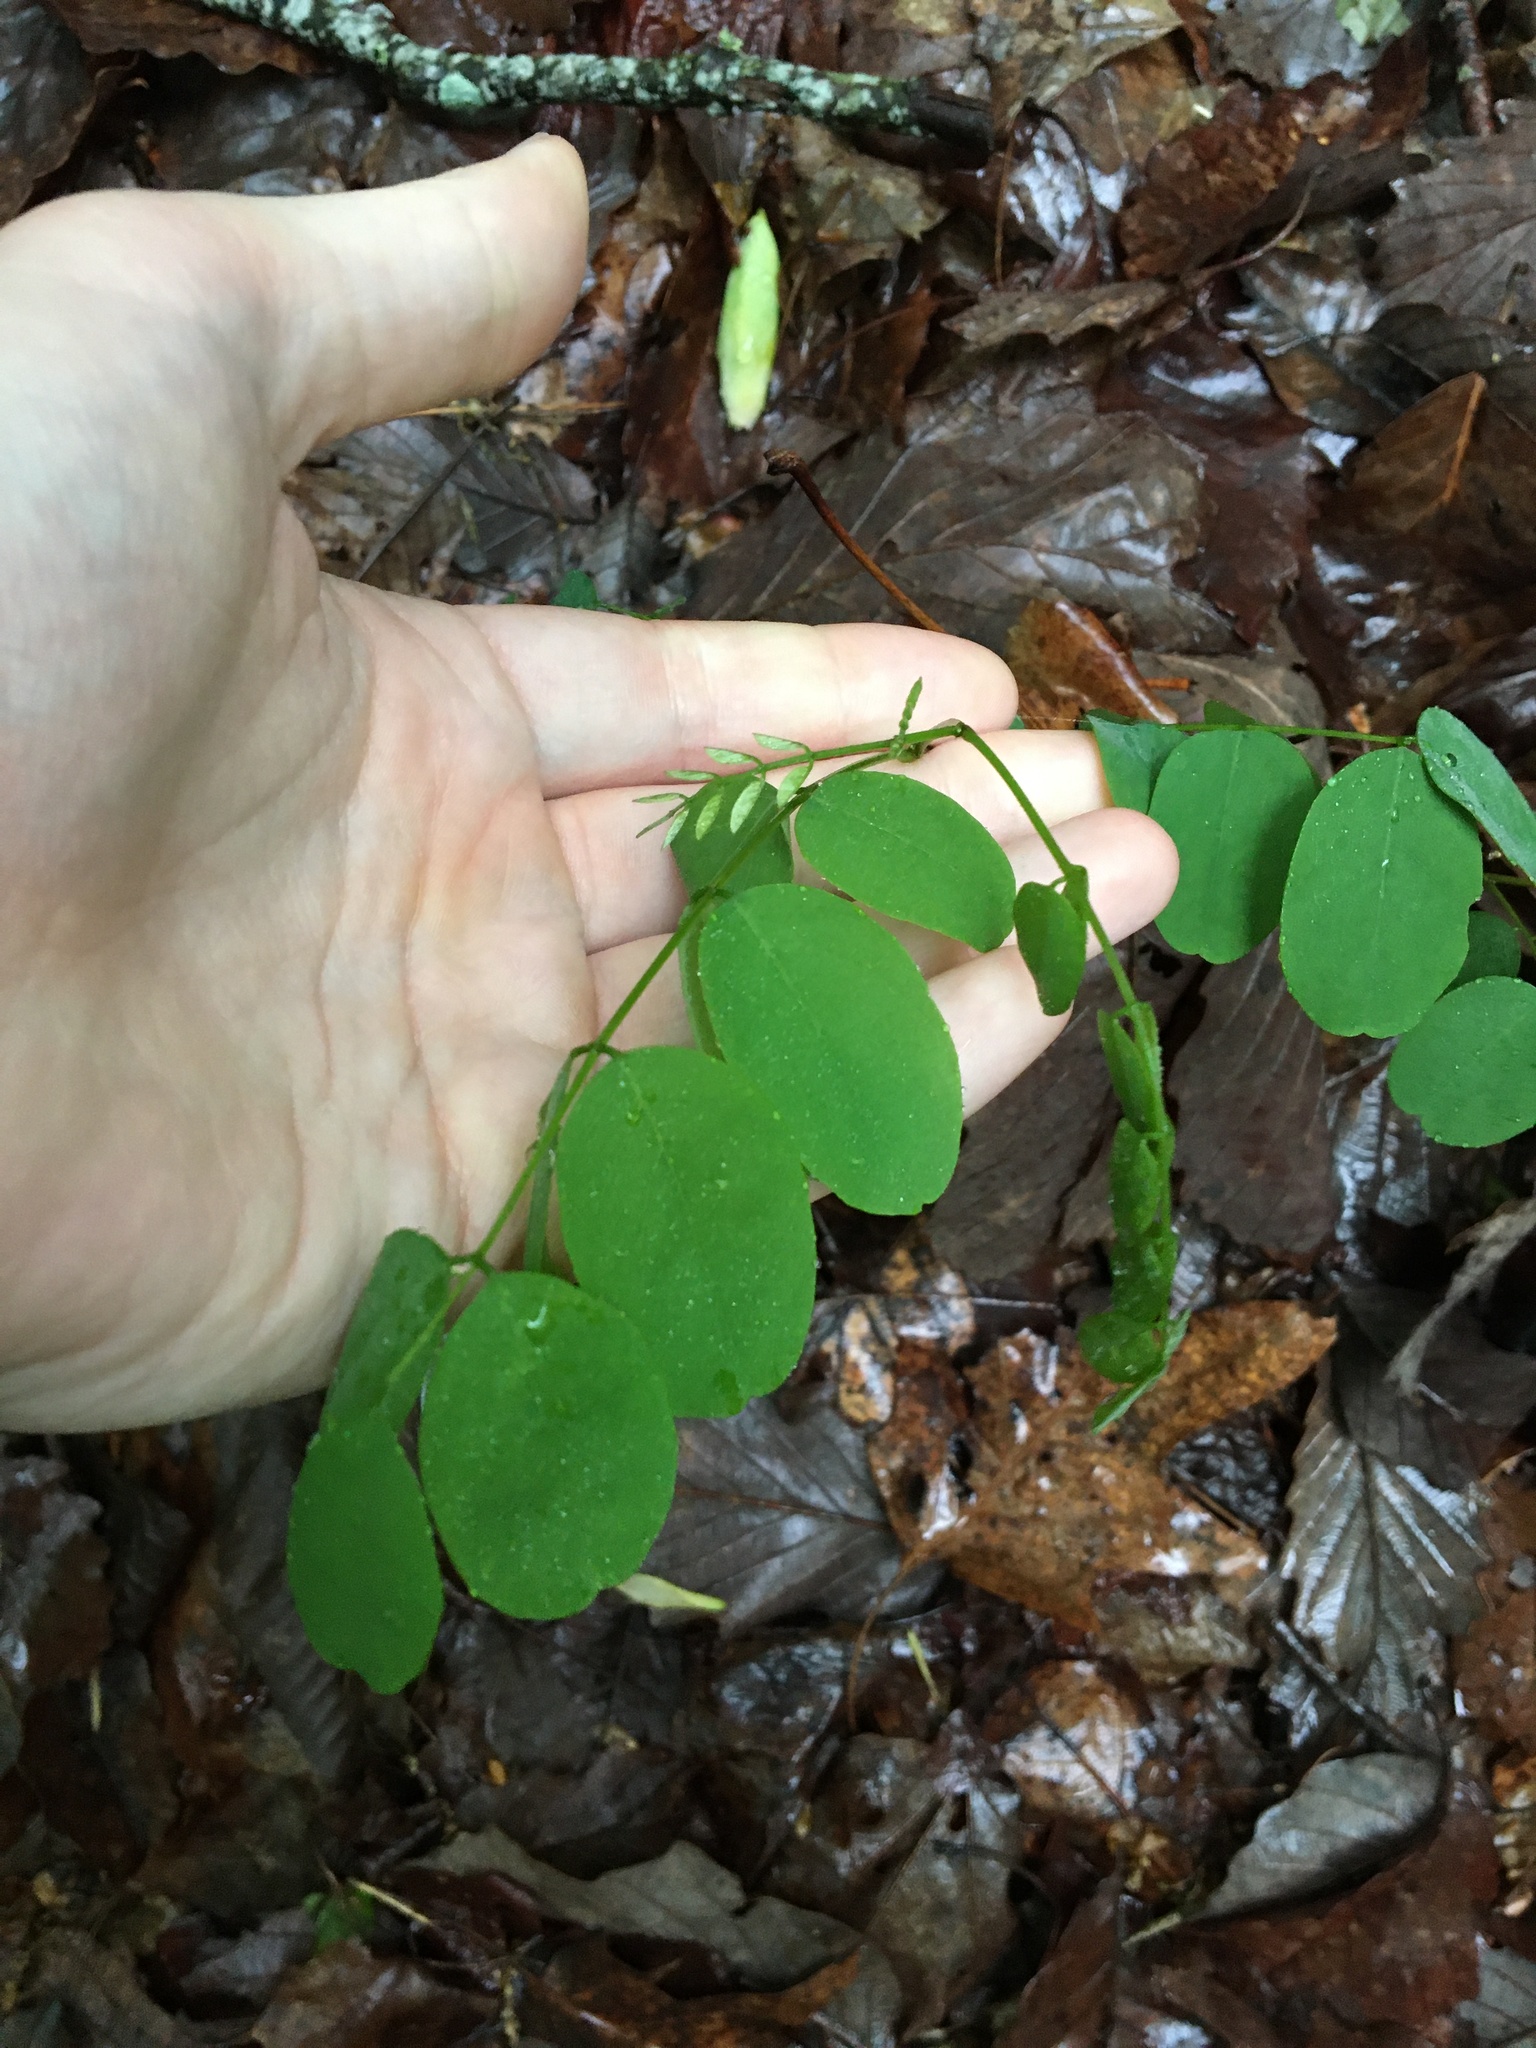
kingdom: Plantae
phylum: Tracheophyta
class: Magnoliopsida
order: Fabales
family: Fabaceae
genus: Robinia
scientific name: Robinia pseudoacacia
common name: Black locust
